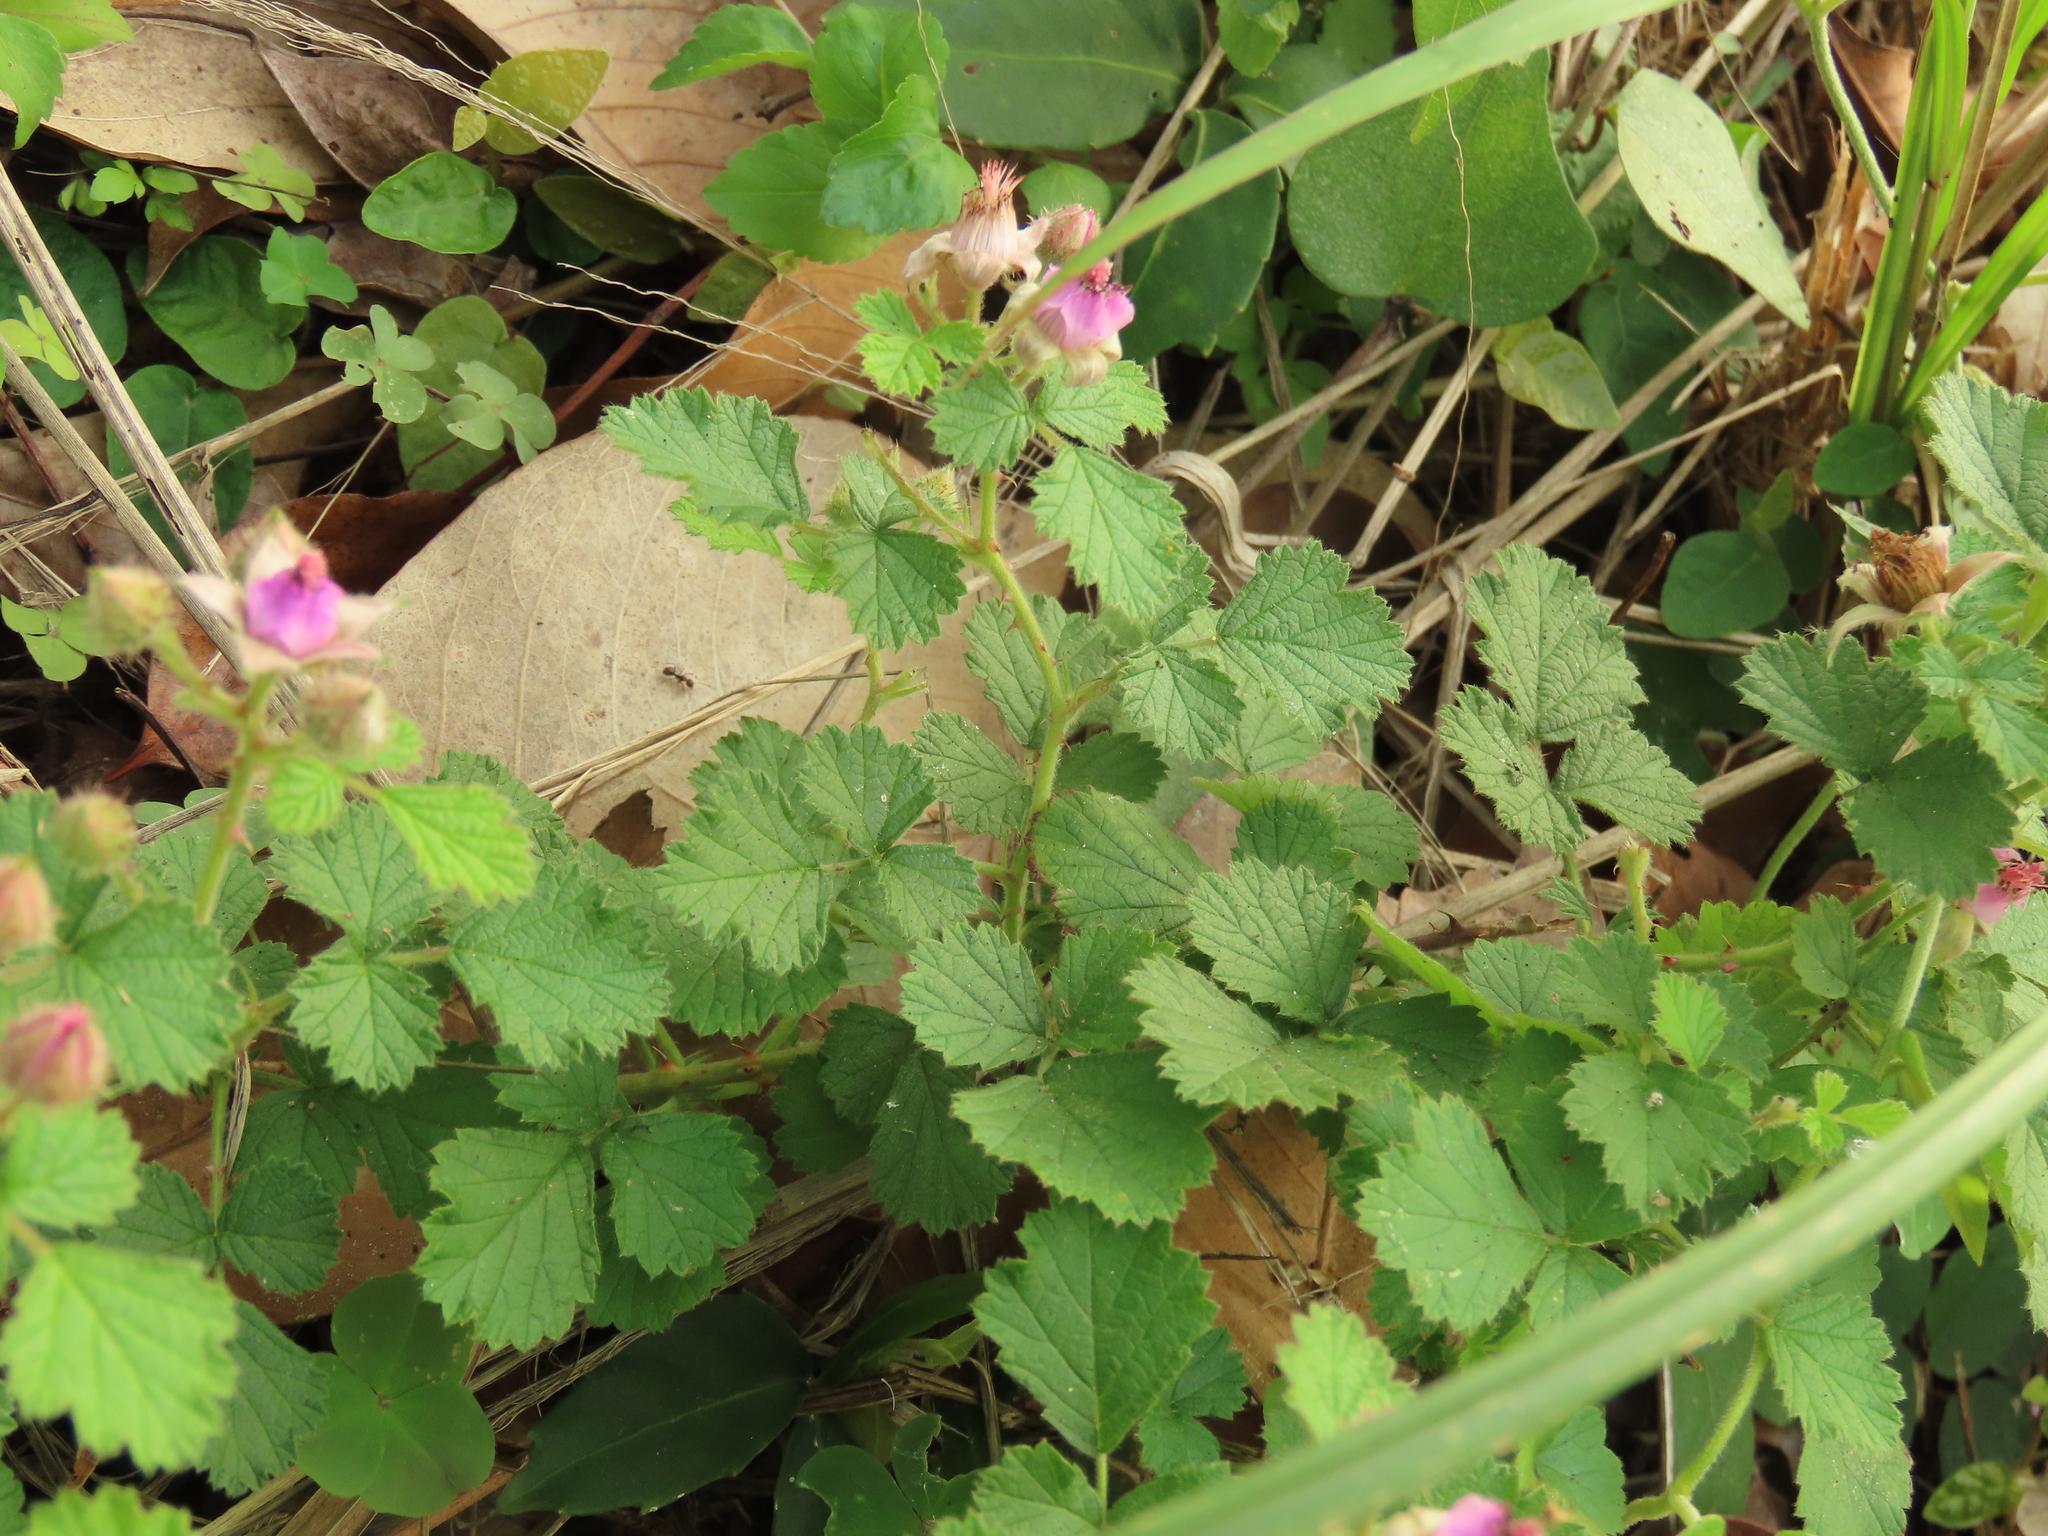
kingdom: Plantae
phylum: Tracheophyta
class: Magnoliopsida
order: Rosales
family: Rosaceae
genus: Rubus
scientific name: Rubus parvifolius
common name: Threeleaf blackberry
